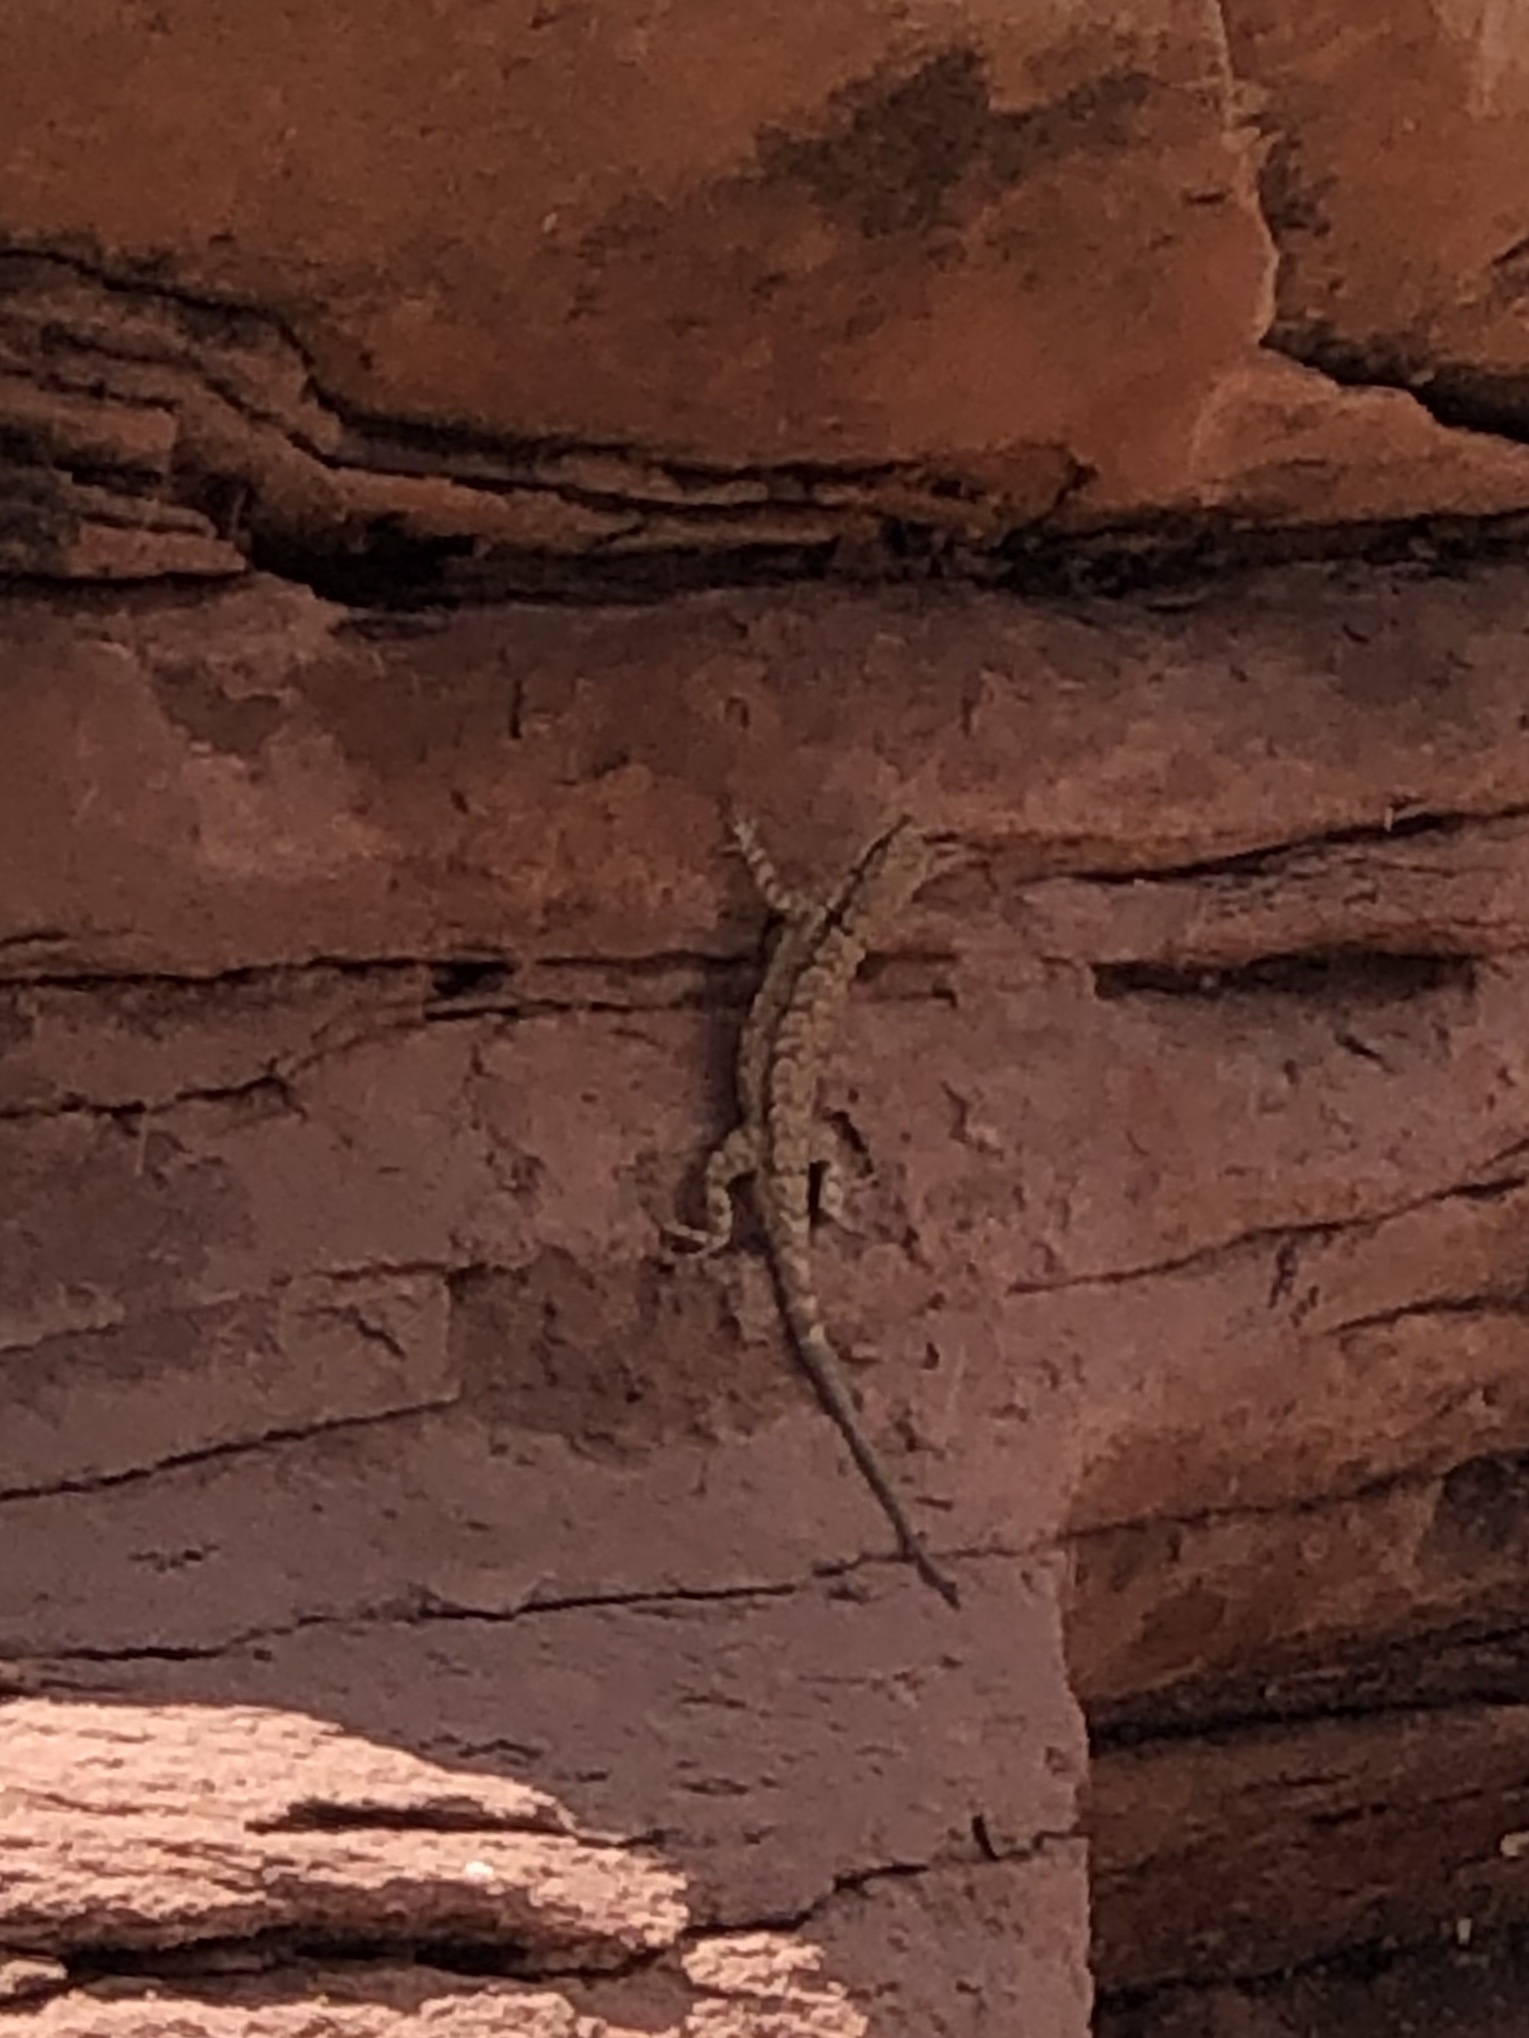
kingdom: Animalia
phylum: Chordata
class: Squamata
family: Phrynosomatidae
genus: Urosaurus
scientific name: Urosaurus ornatus
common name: Ornate tree lizard
